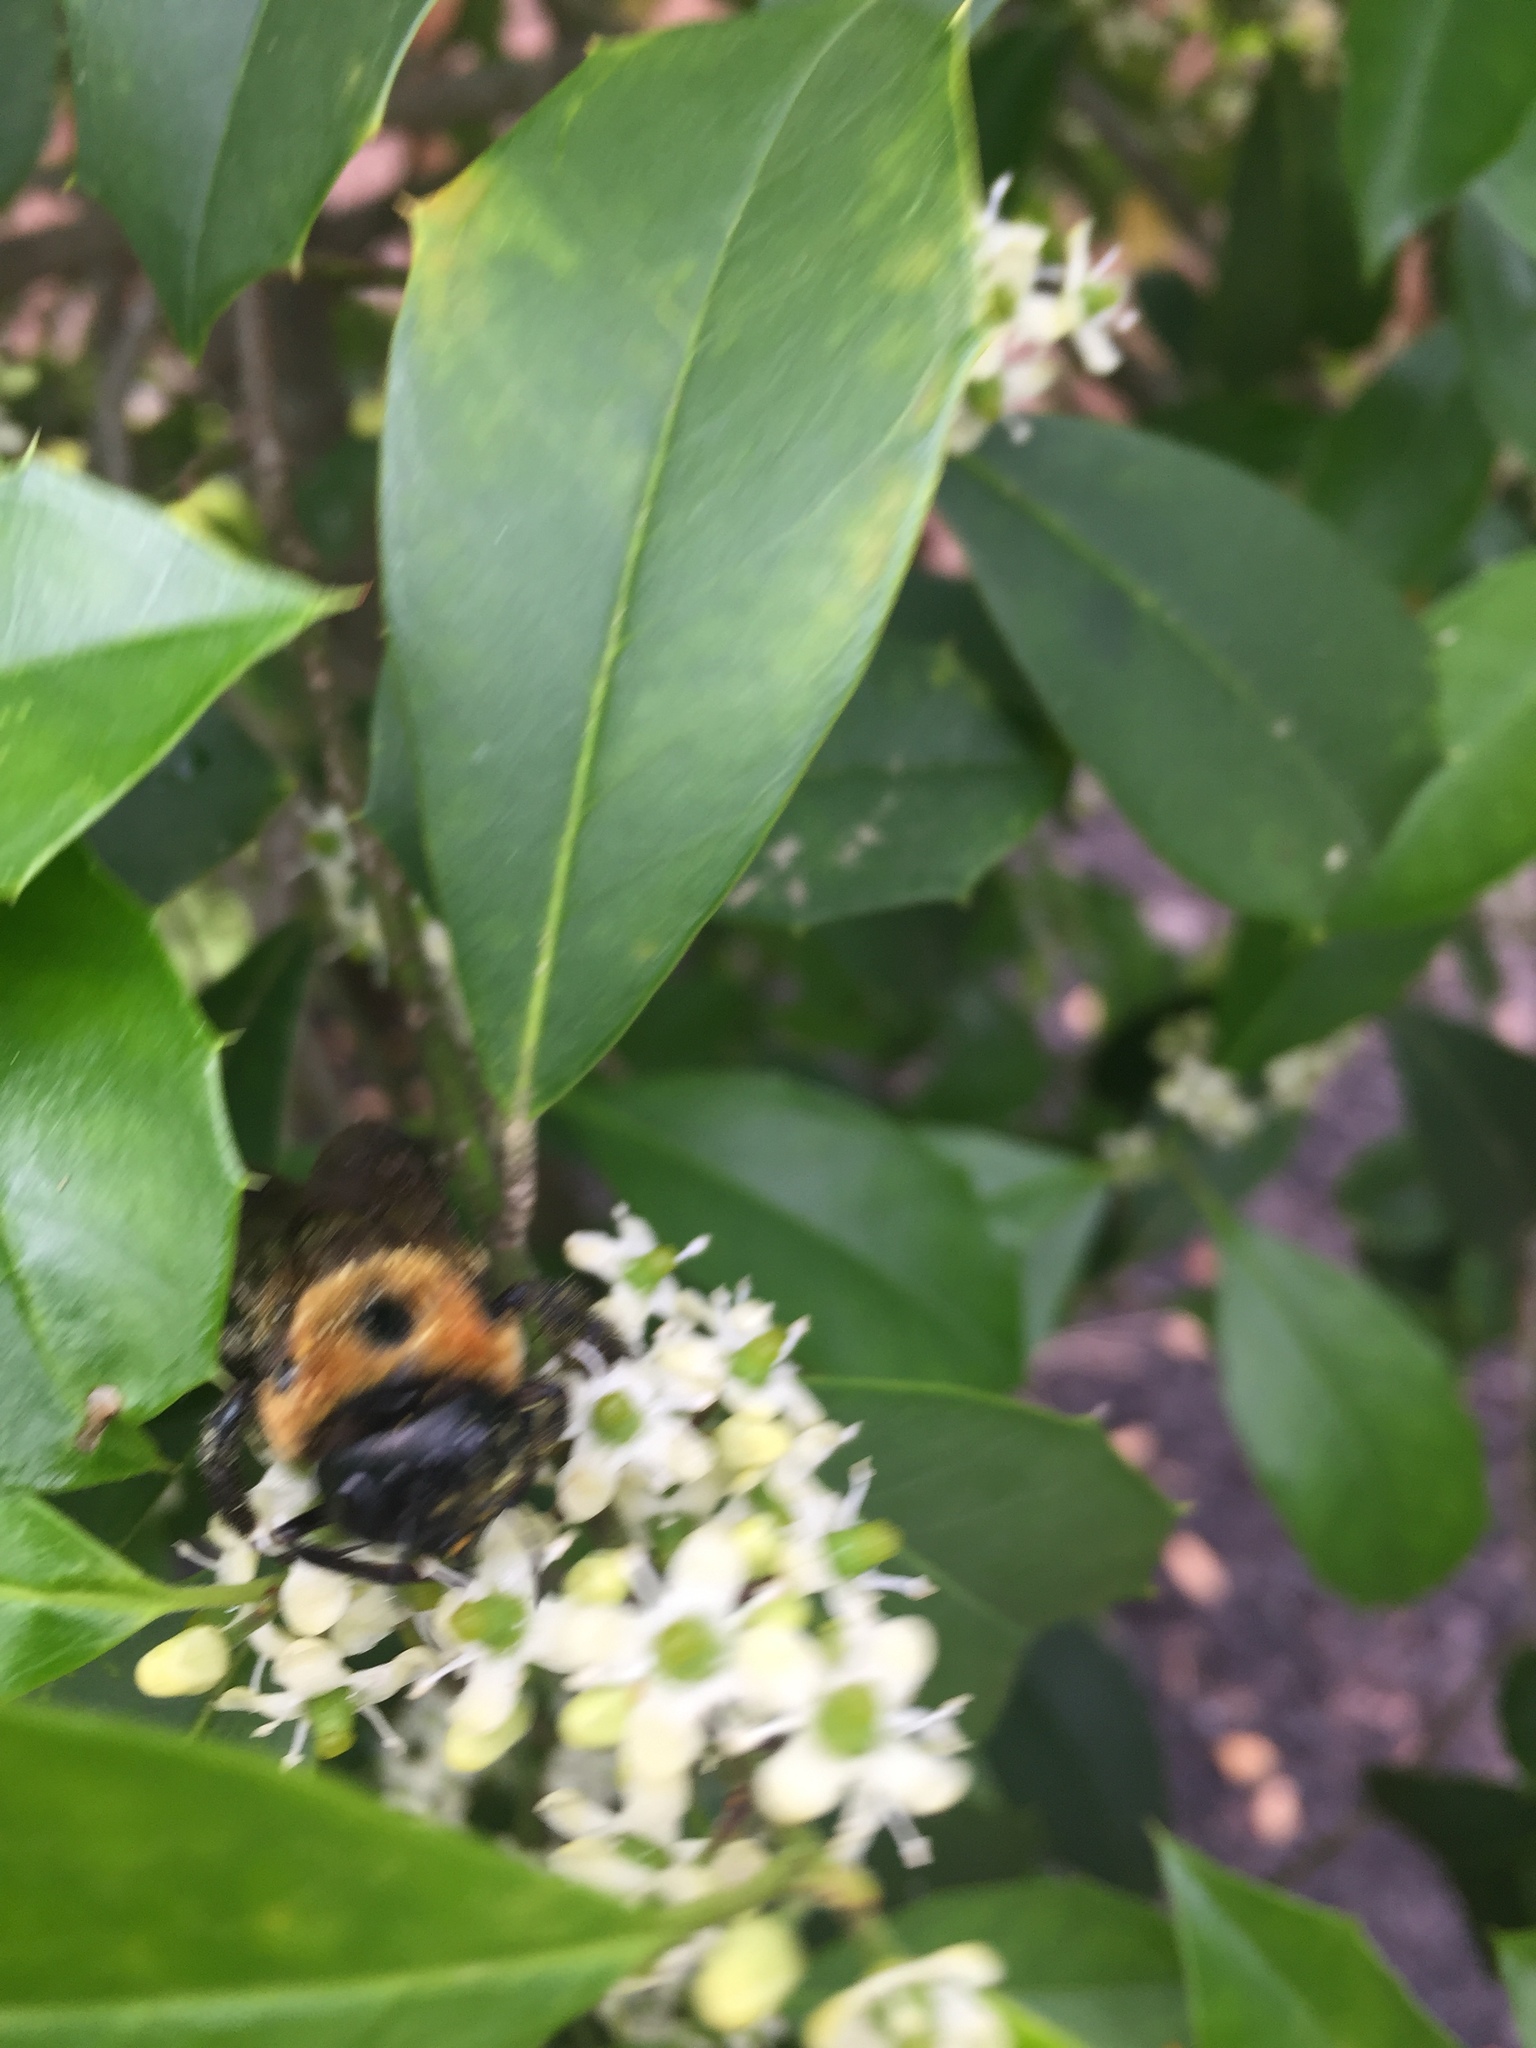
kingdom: Animalia
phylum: Arthropoda
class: Insecta
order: Hymenoptera
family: Apidae
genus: Xylocopa
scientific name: Xylocopa virginica
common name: Carpenter bee
